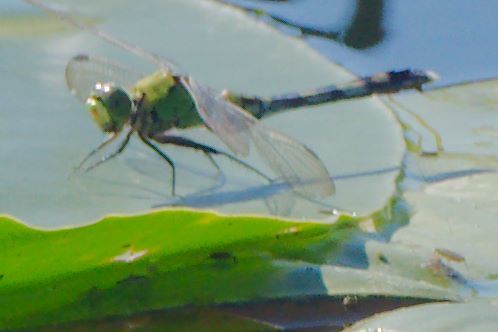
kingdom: Animalia
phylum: Arthropoda
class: Insecta
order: Odonata
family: Libellulidae
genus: Erythemis
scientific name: Erythemis simplicicollis
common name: Eastern pondhawk
